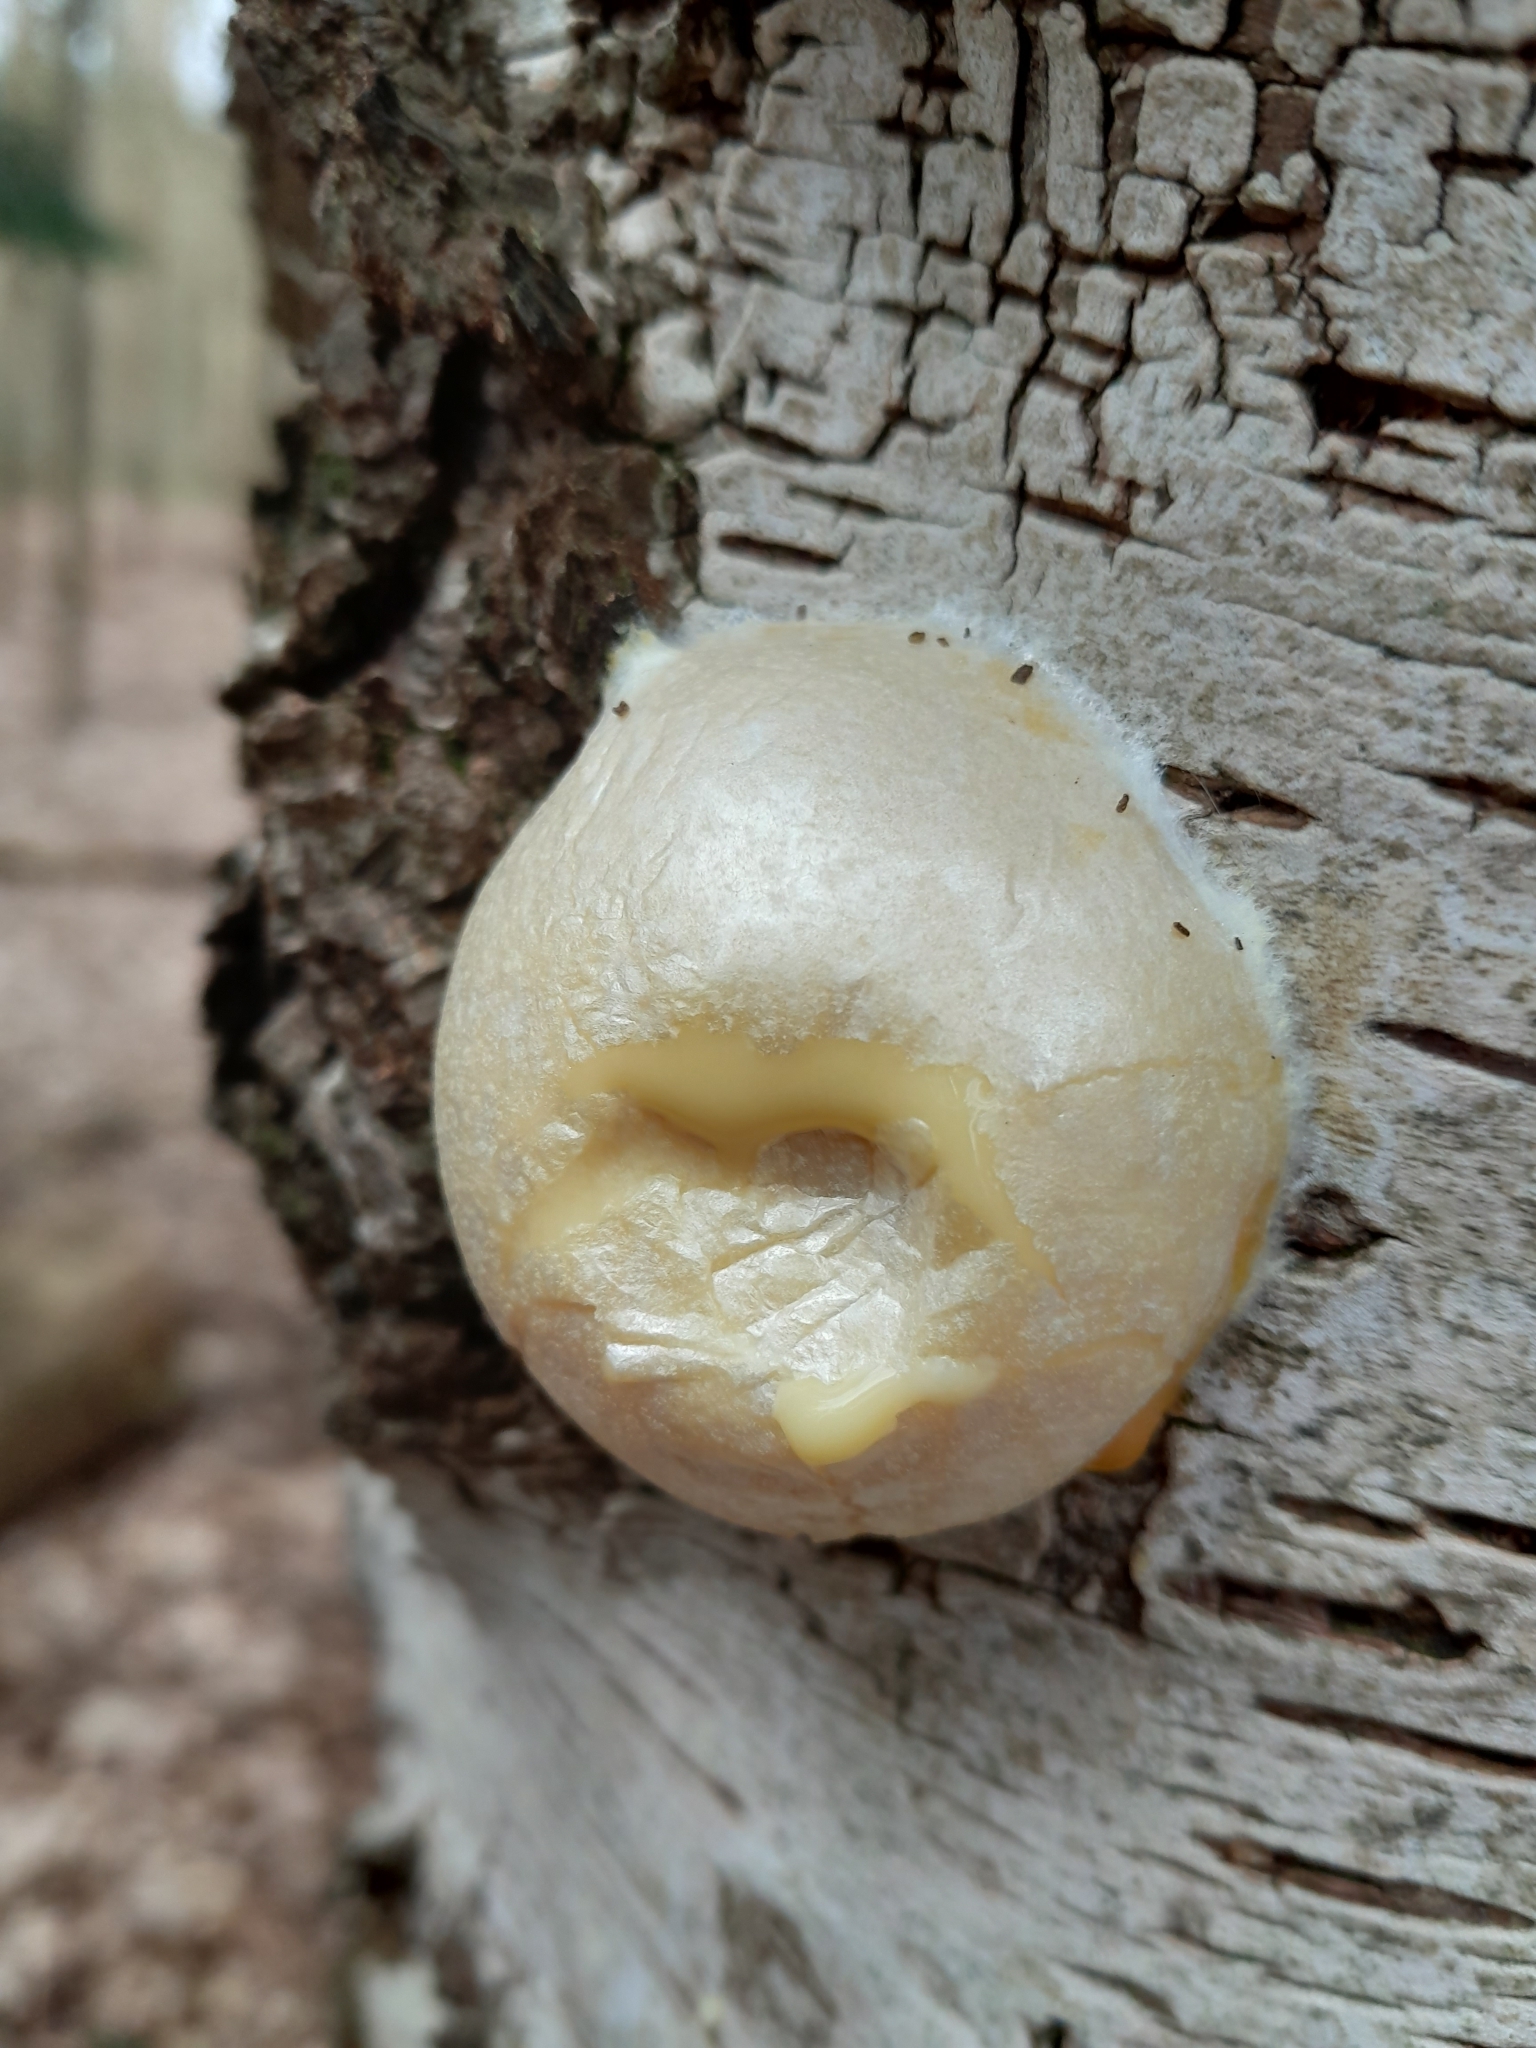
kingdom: Protozoa
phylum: Mycetozoa
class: Myxomycetes
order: Cribrariales
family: Tubiferaceae
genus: Reticularia
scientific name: Reticularia lycoperdon
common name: False puffball
